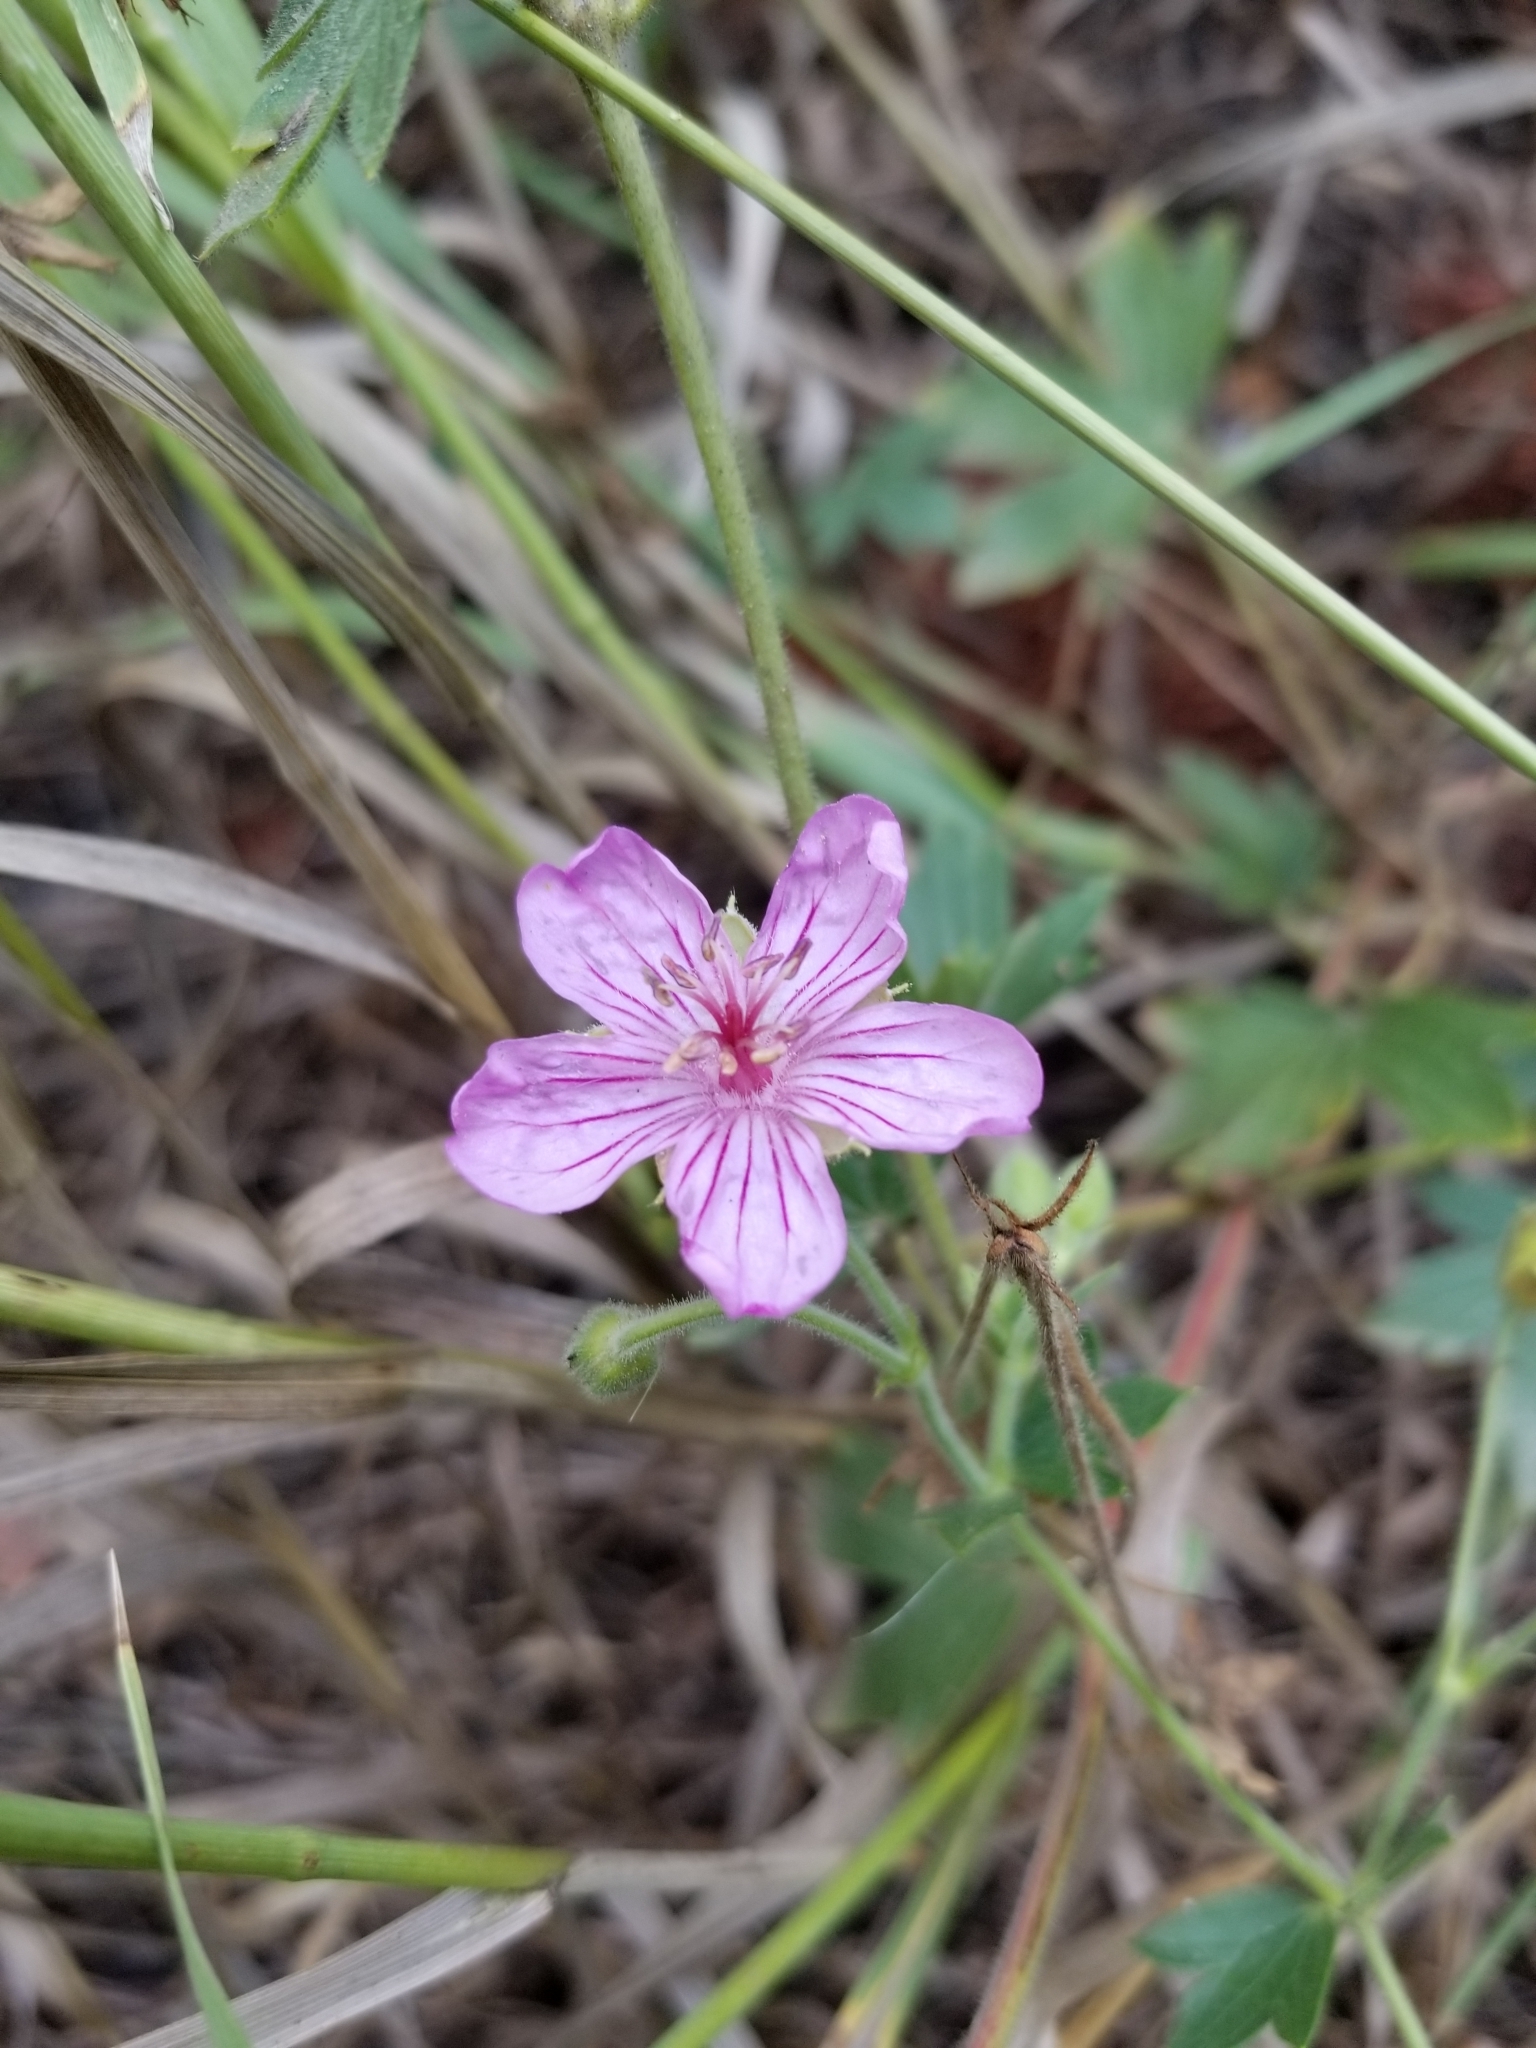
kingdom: Plantae
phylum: Tracheophyta
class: Magnoliopsida
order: Geraniales
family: Geraniaceae
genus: Geranium
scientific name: Geranium caespitosum
